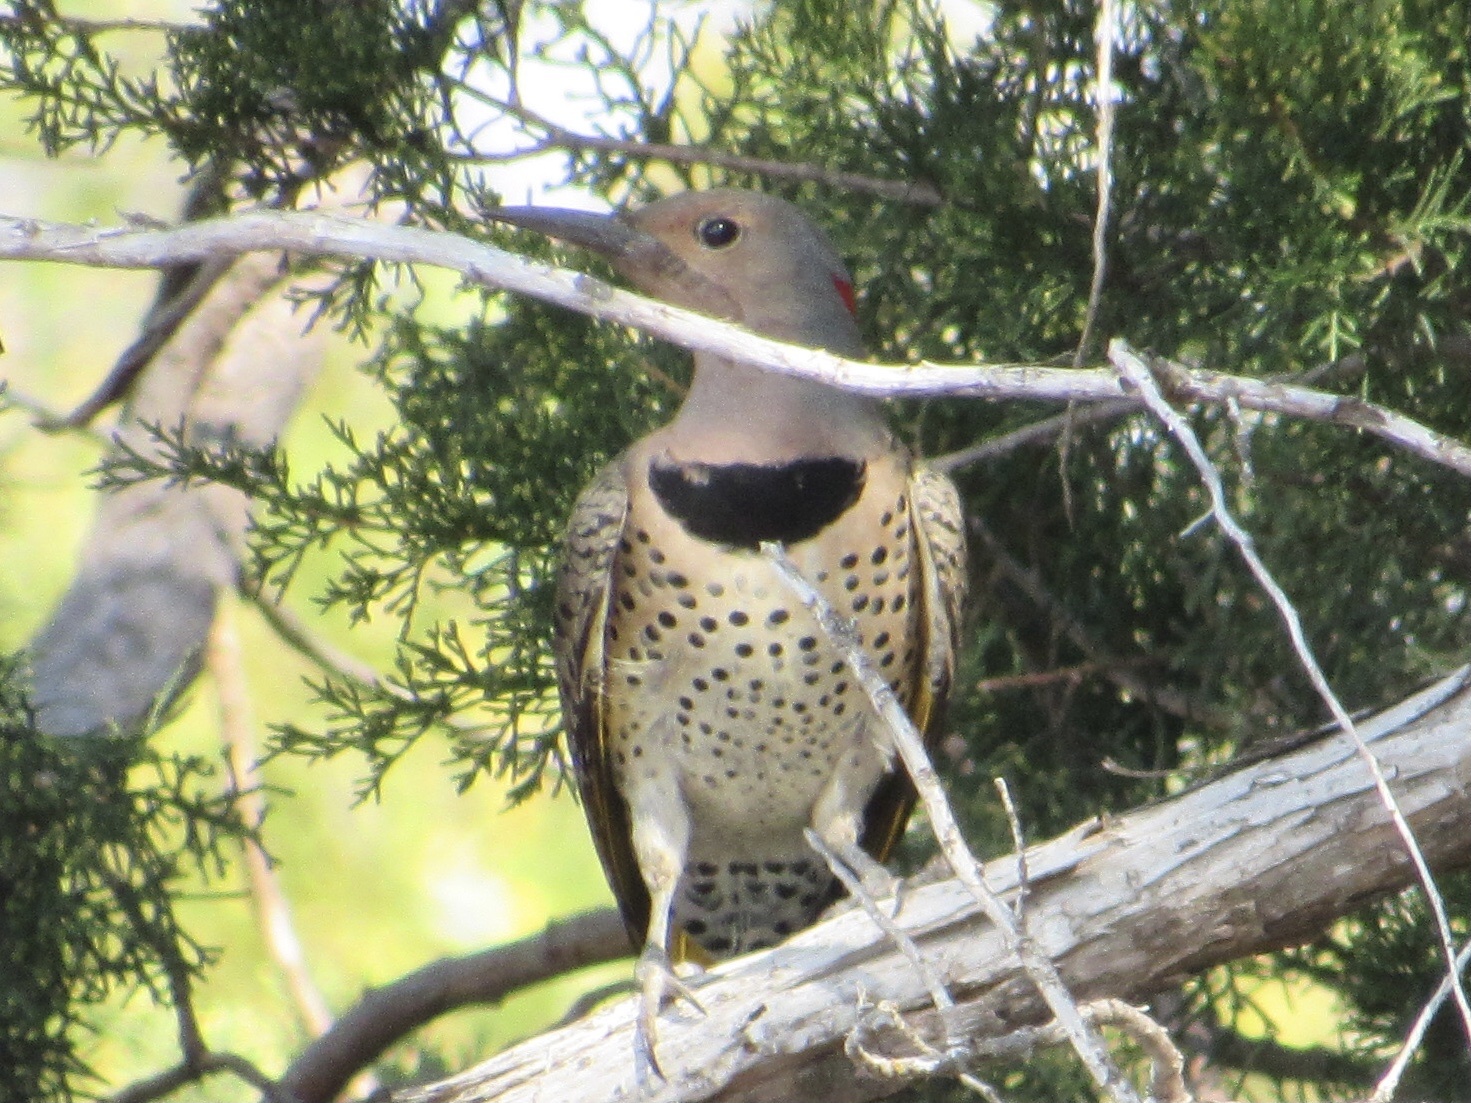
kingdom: Animalia
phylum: Chordata
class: Aves
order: Piciformes
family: Picidae
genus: Colaptes
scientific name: Colaptes auratus
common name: Northern flicker
